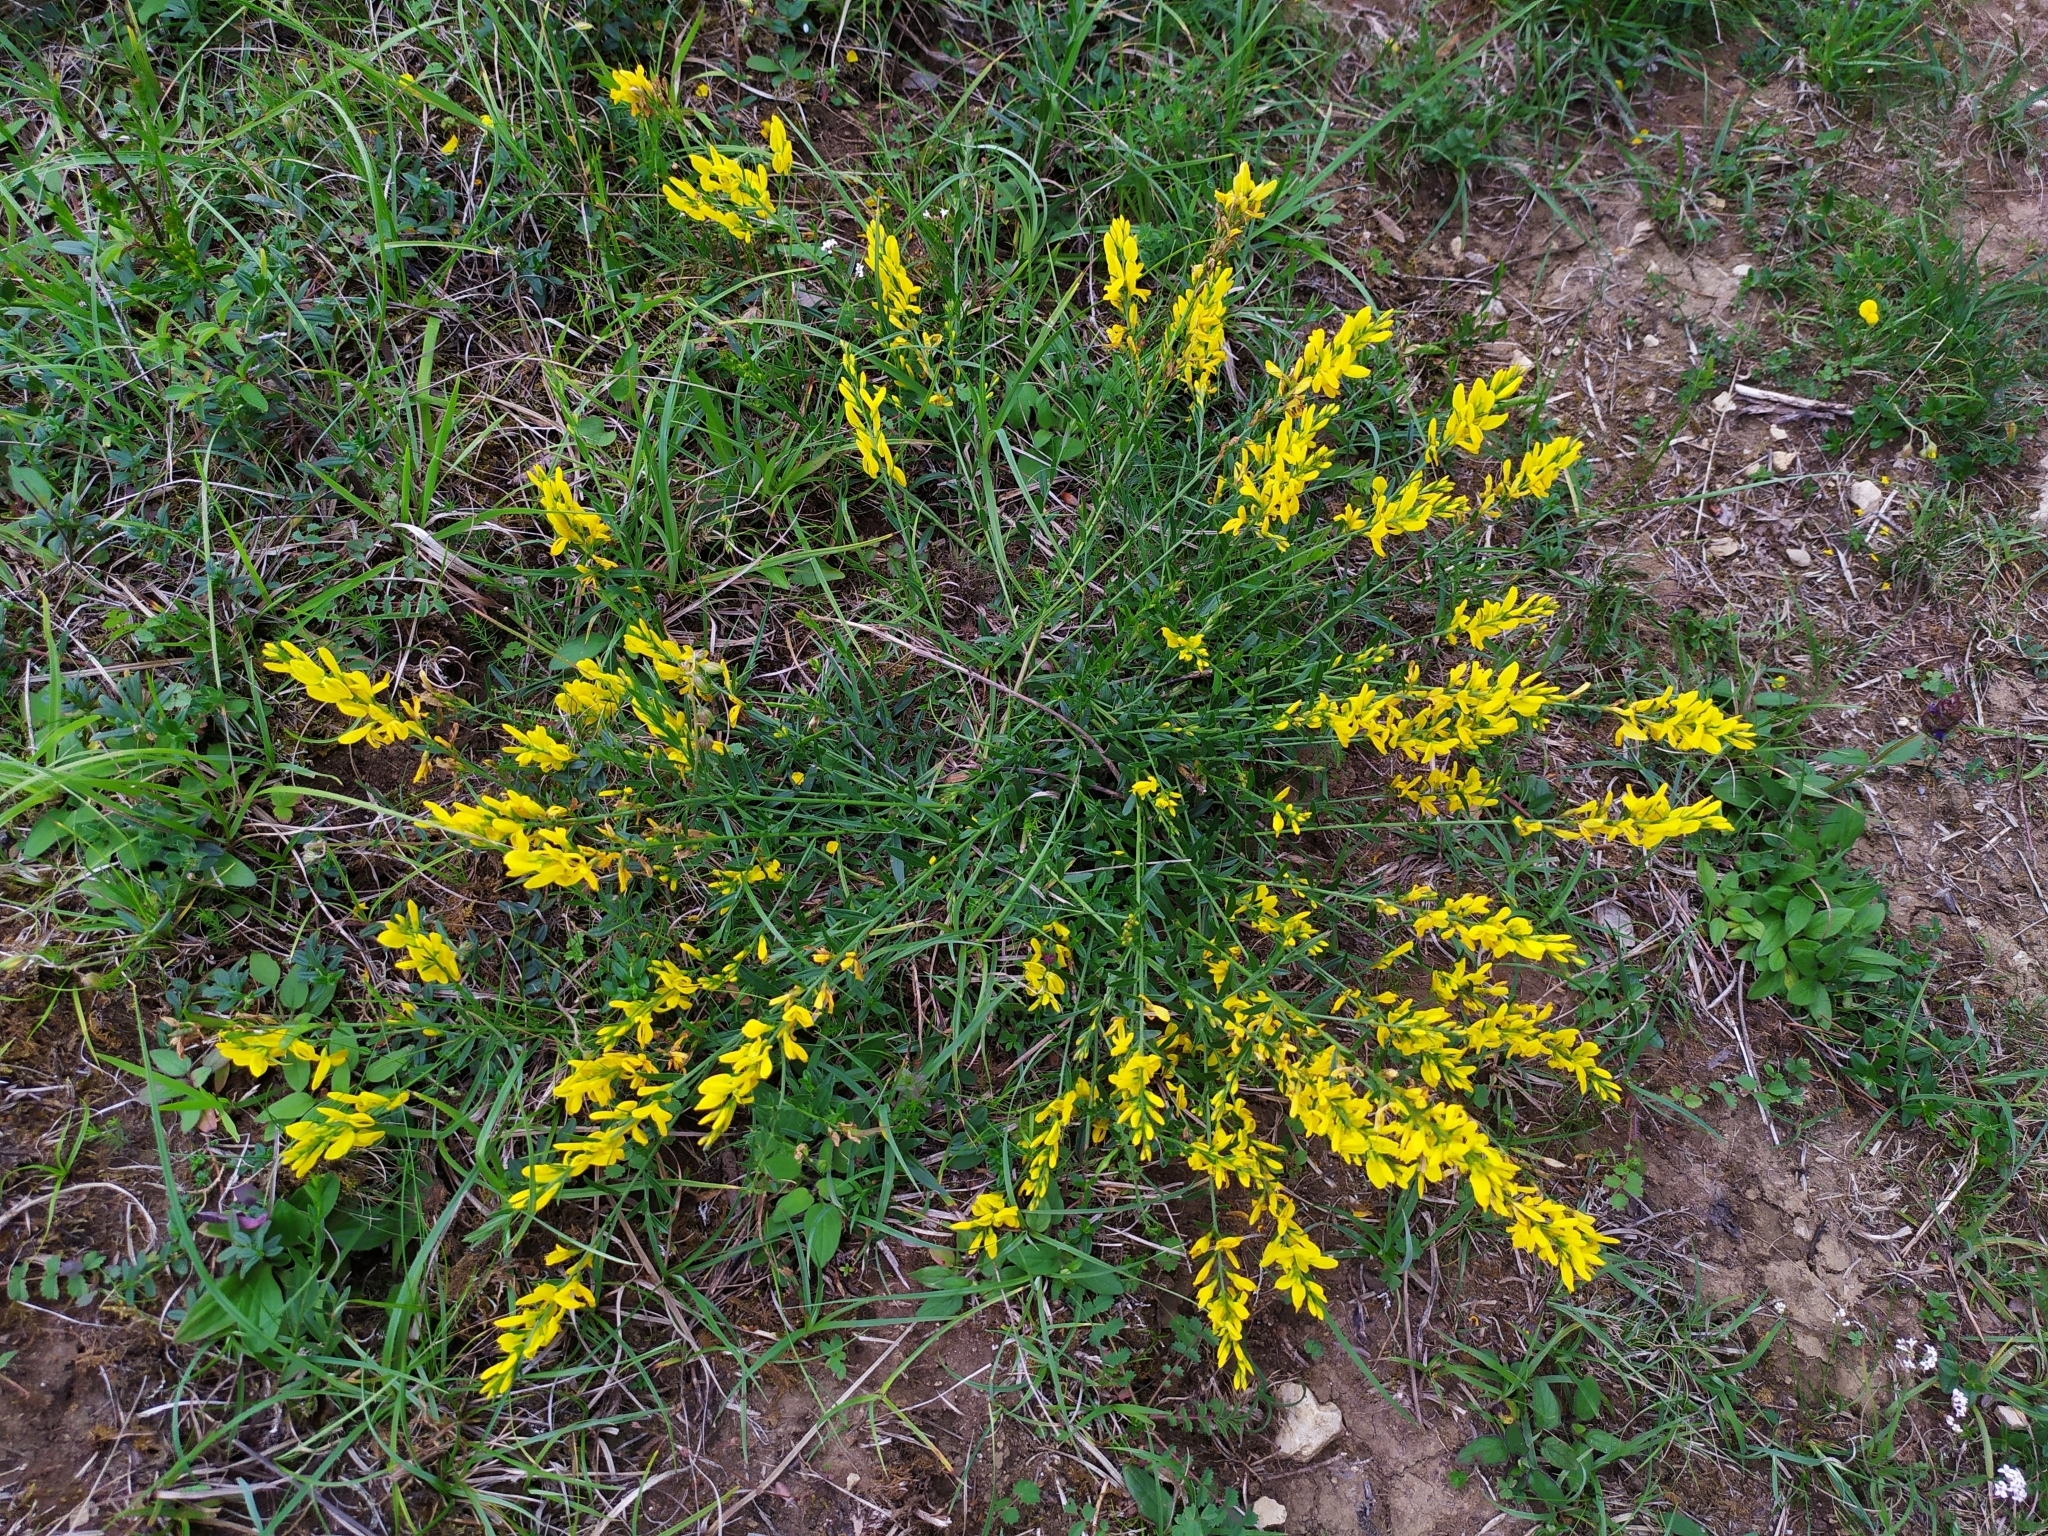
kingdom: Plantae
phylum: Tracheophyta
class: Magnoliopsida
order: Fabales
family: Fabaceae
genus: Genista
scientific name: Genista tinctoria
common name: Dyer's greenweed
